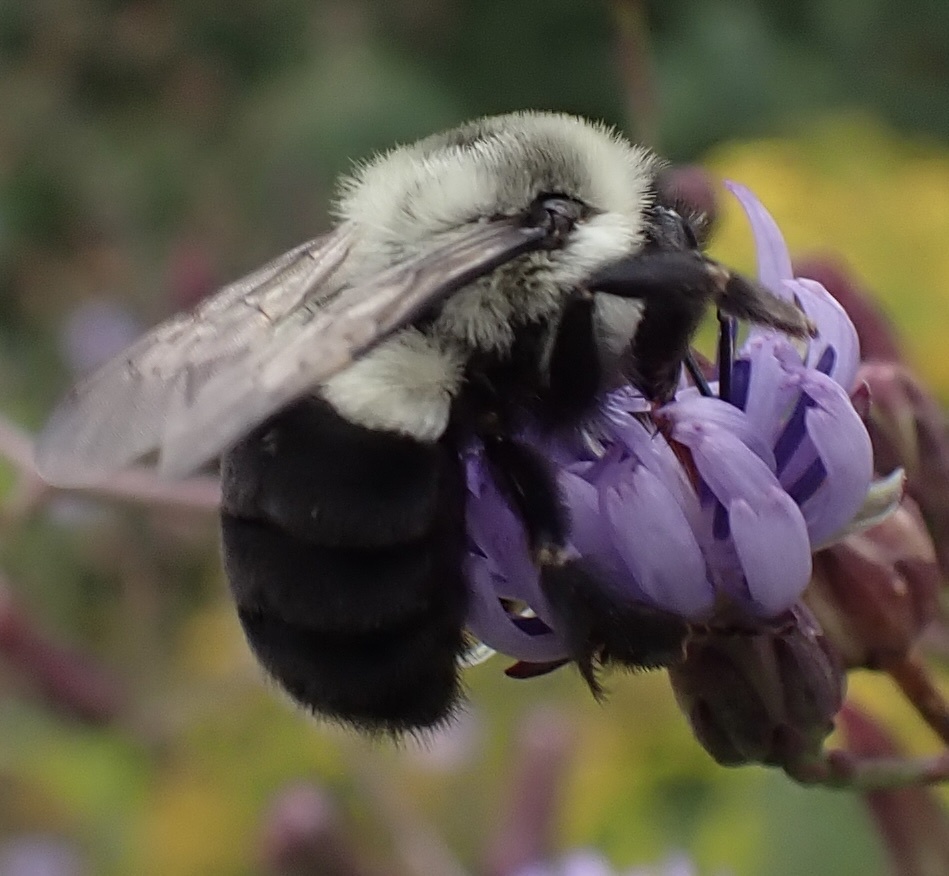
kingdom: Animalia
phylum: Arthropoda
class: Insecta
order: Hymenoptera
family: Apidae
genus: Bombus
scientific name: Bombus impatiens
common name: Common eastern bumble bee
